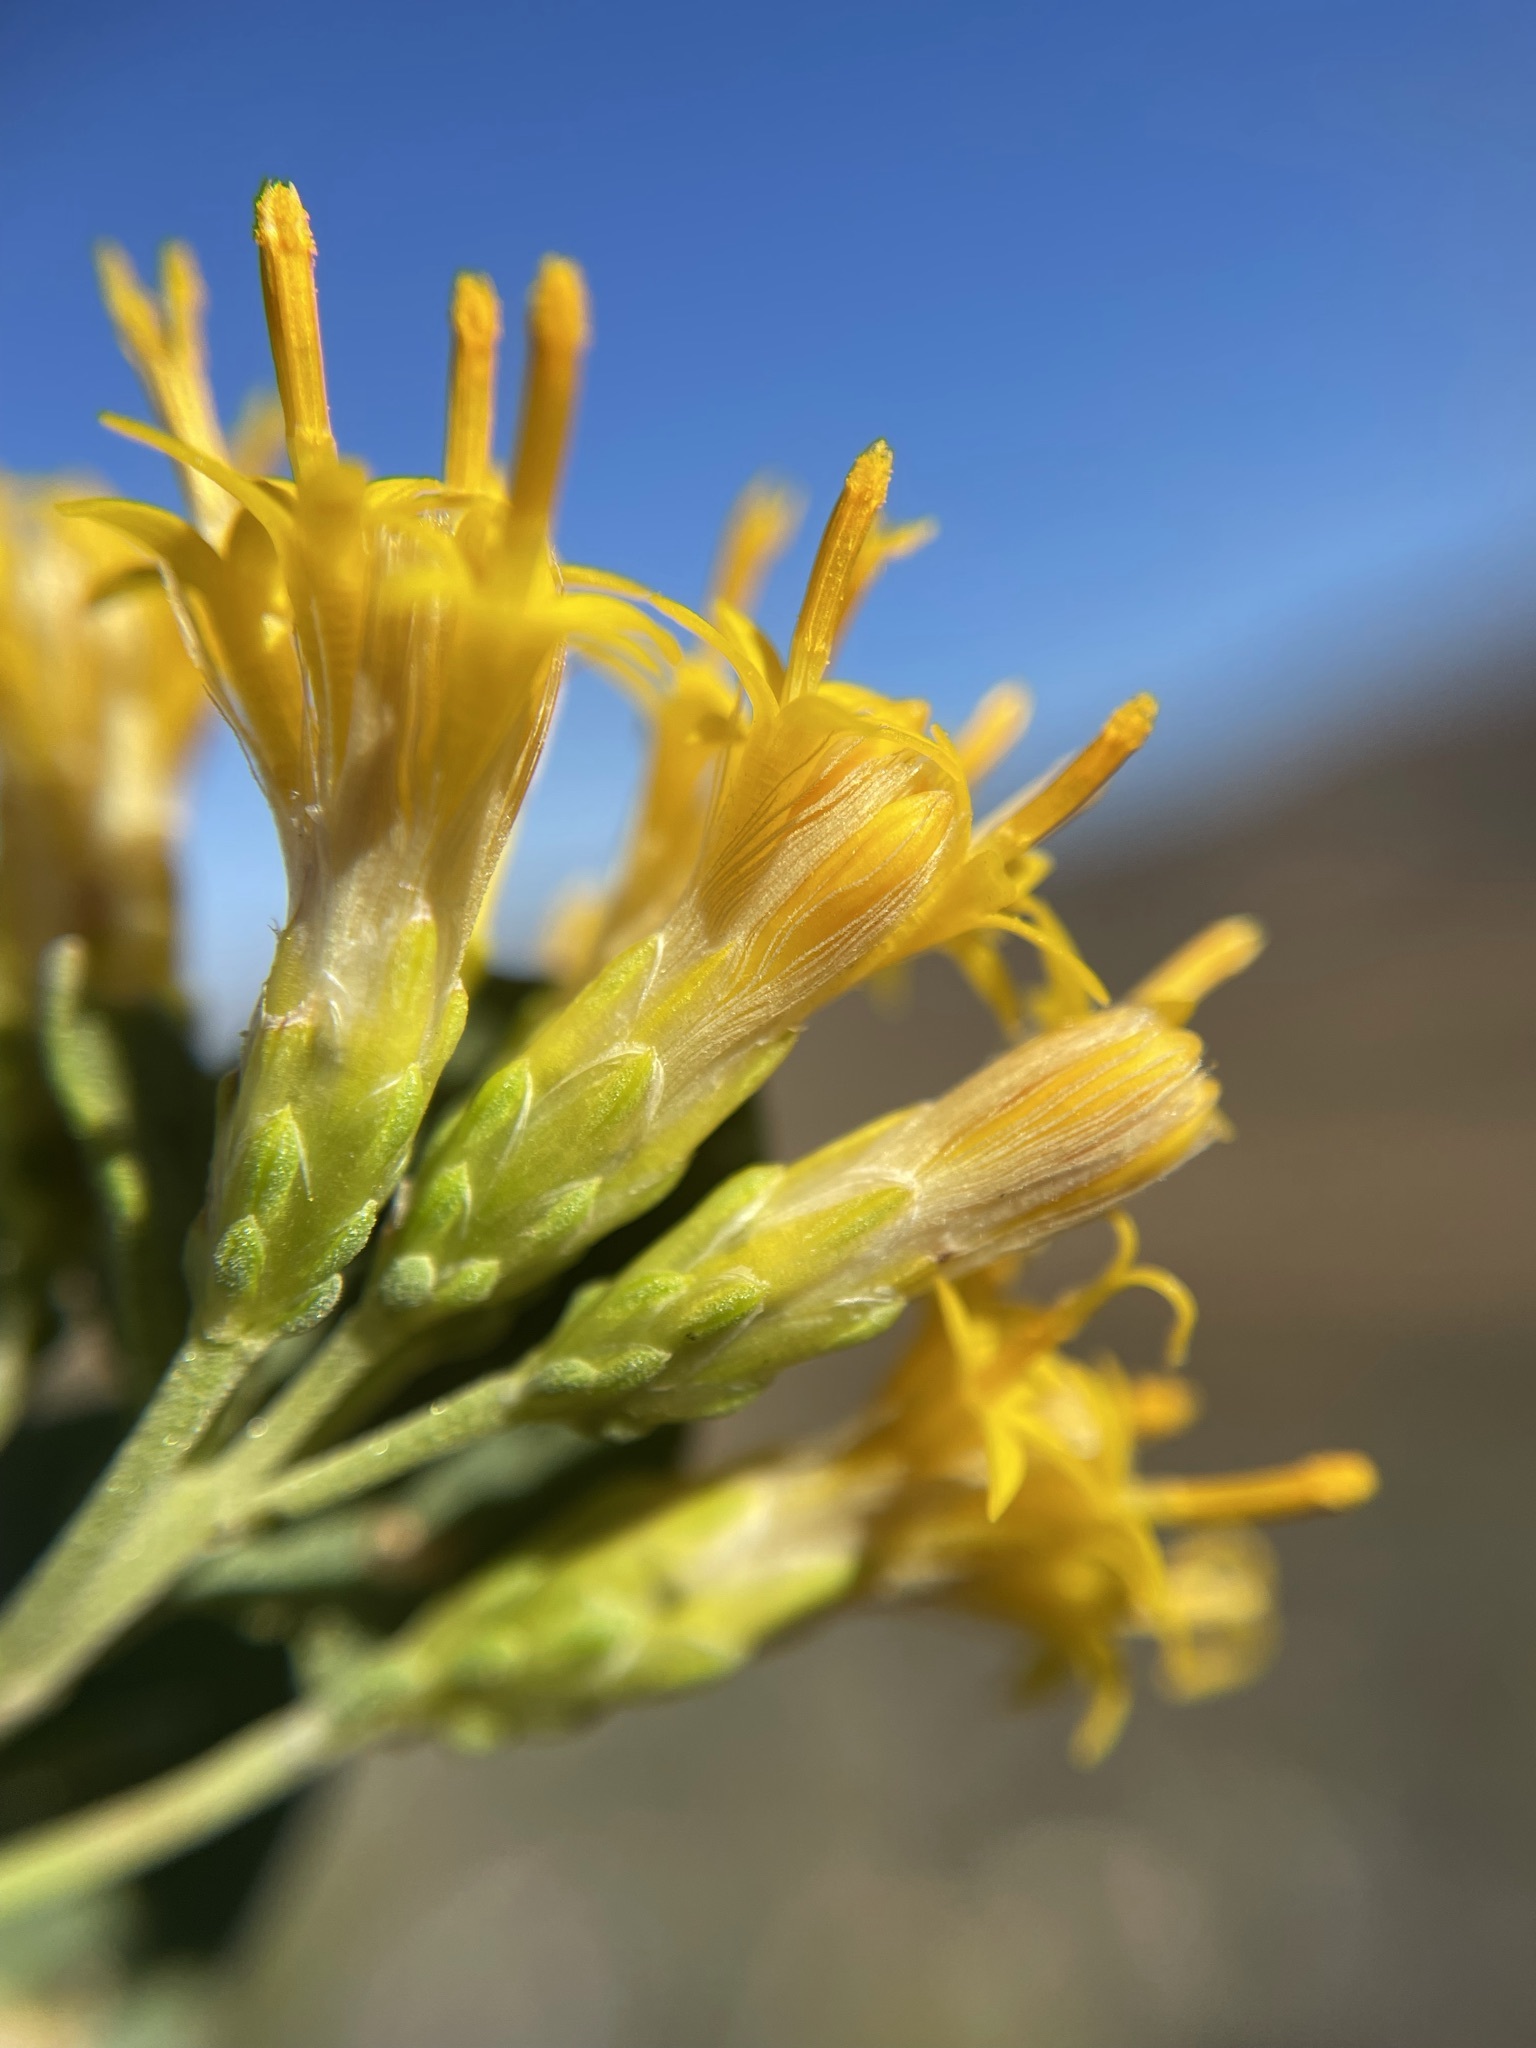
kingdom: Plantae
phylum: Tracheophyta
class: Magnoliopsida
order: Asterales
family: Asteraceae
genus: Pteronia
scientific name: Pteronia divaricata
